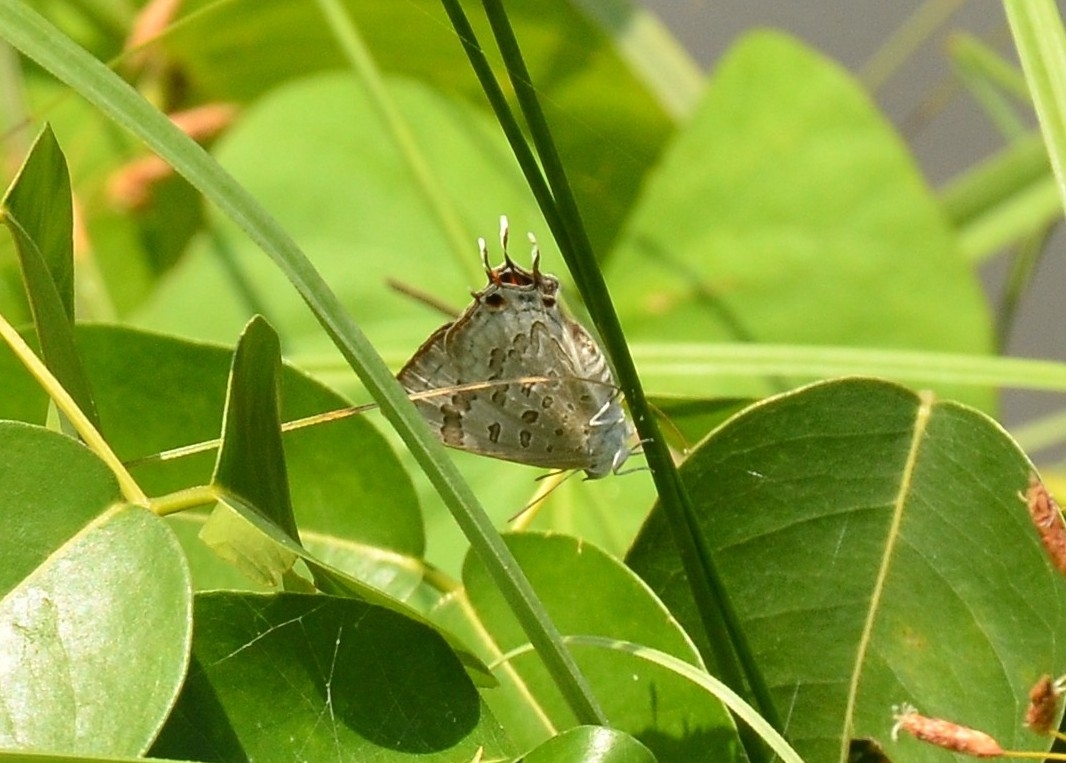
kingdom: Animalia
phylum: Arthropoda
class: Insecta
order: Lepidoptera
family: Lycaenidae
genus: Zesius
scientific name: Zesius chrysomallus
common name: Redspot
